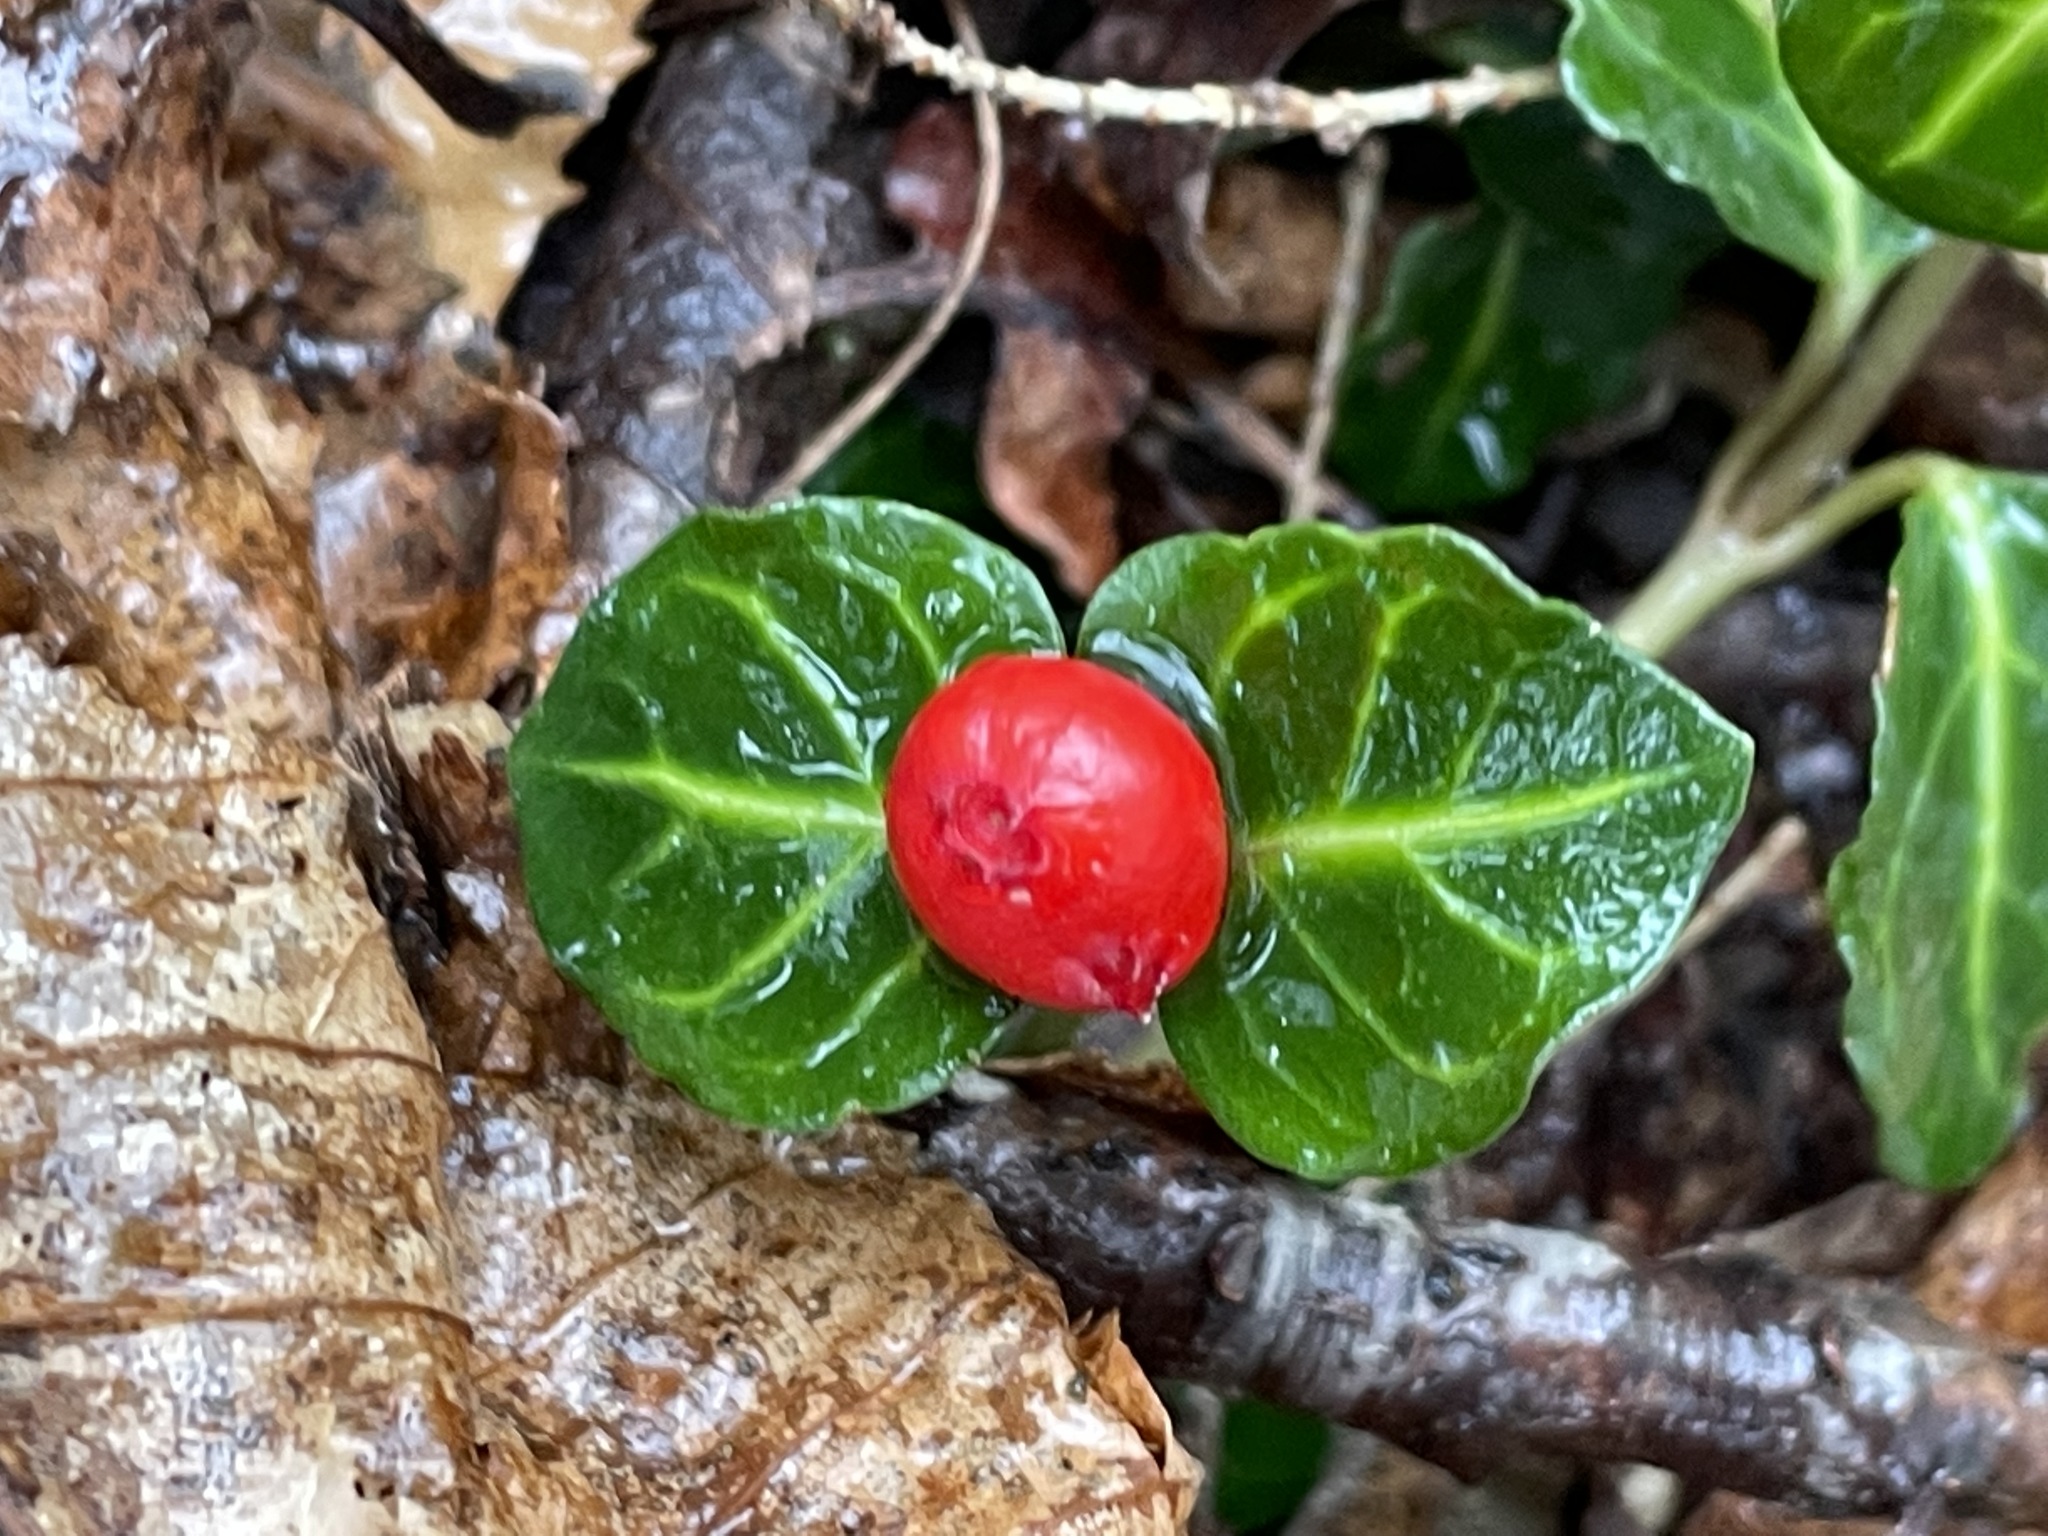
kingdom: Plantae
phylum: Tracheophyta
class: Magnoliopsida
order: Gentianales
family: Rubiaceae
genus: Mitchella
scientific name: Mitchella repens
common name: Partridge-berry
